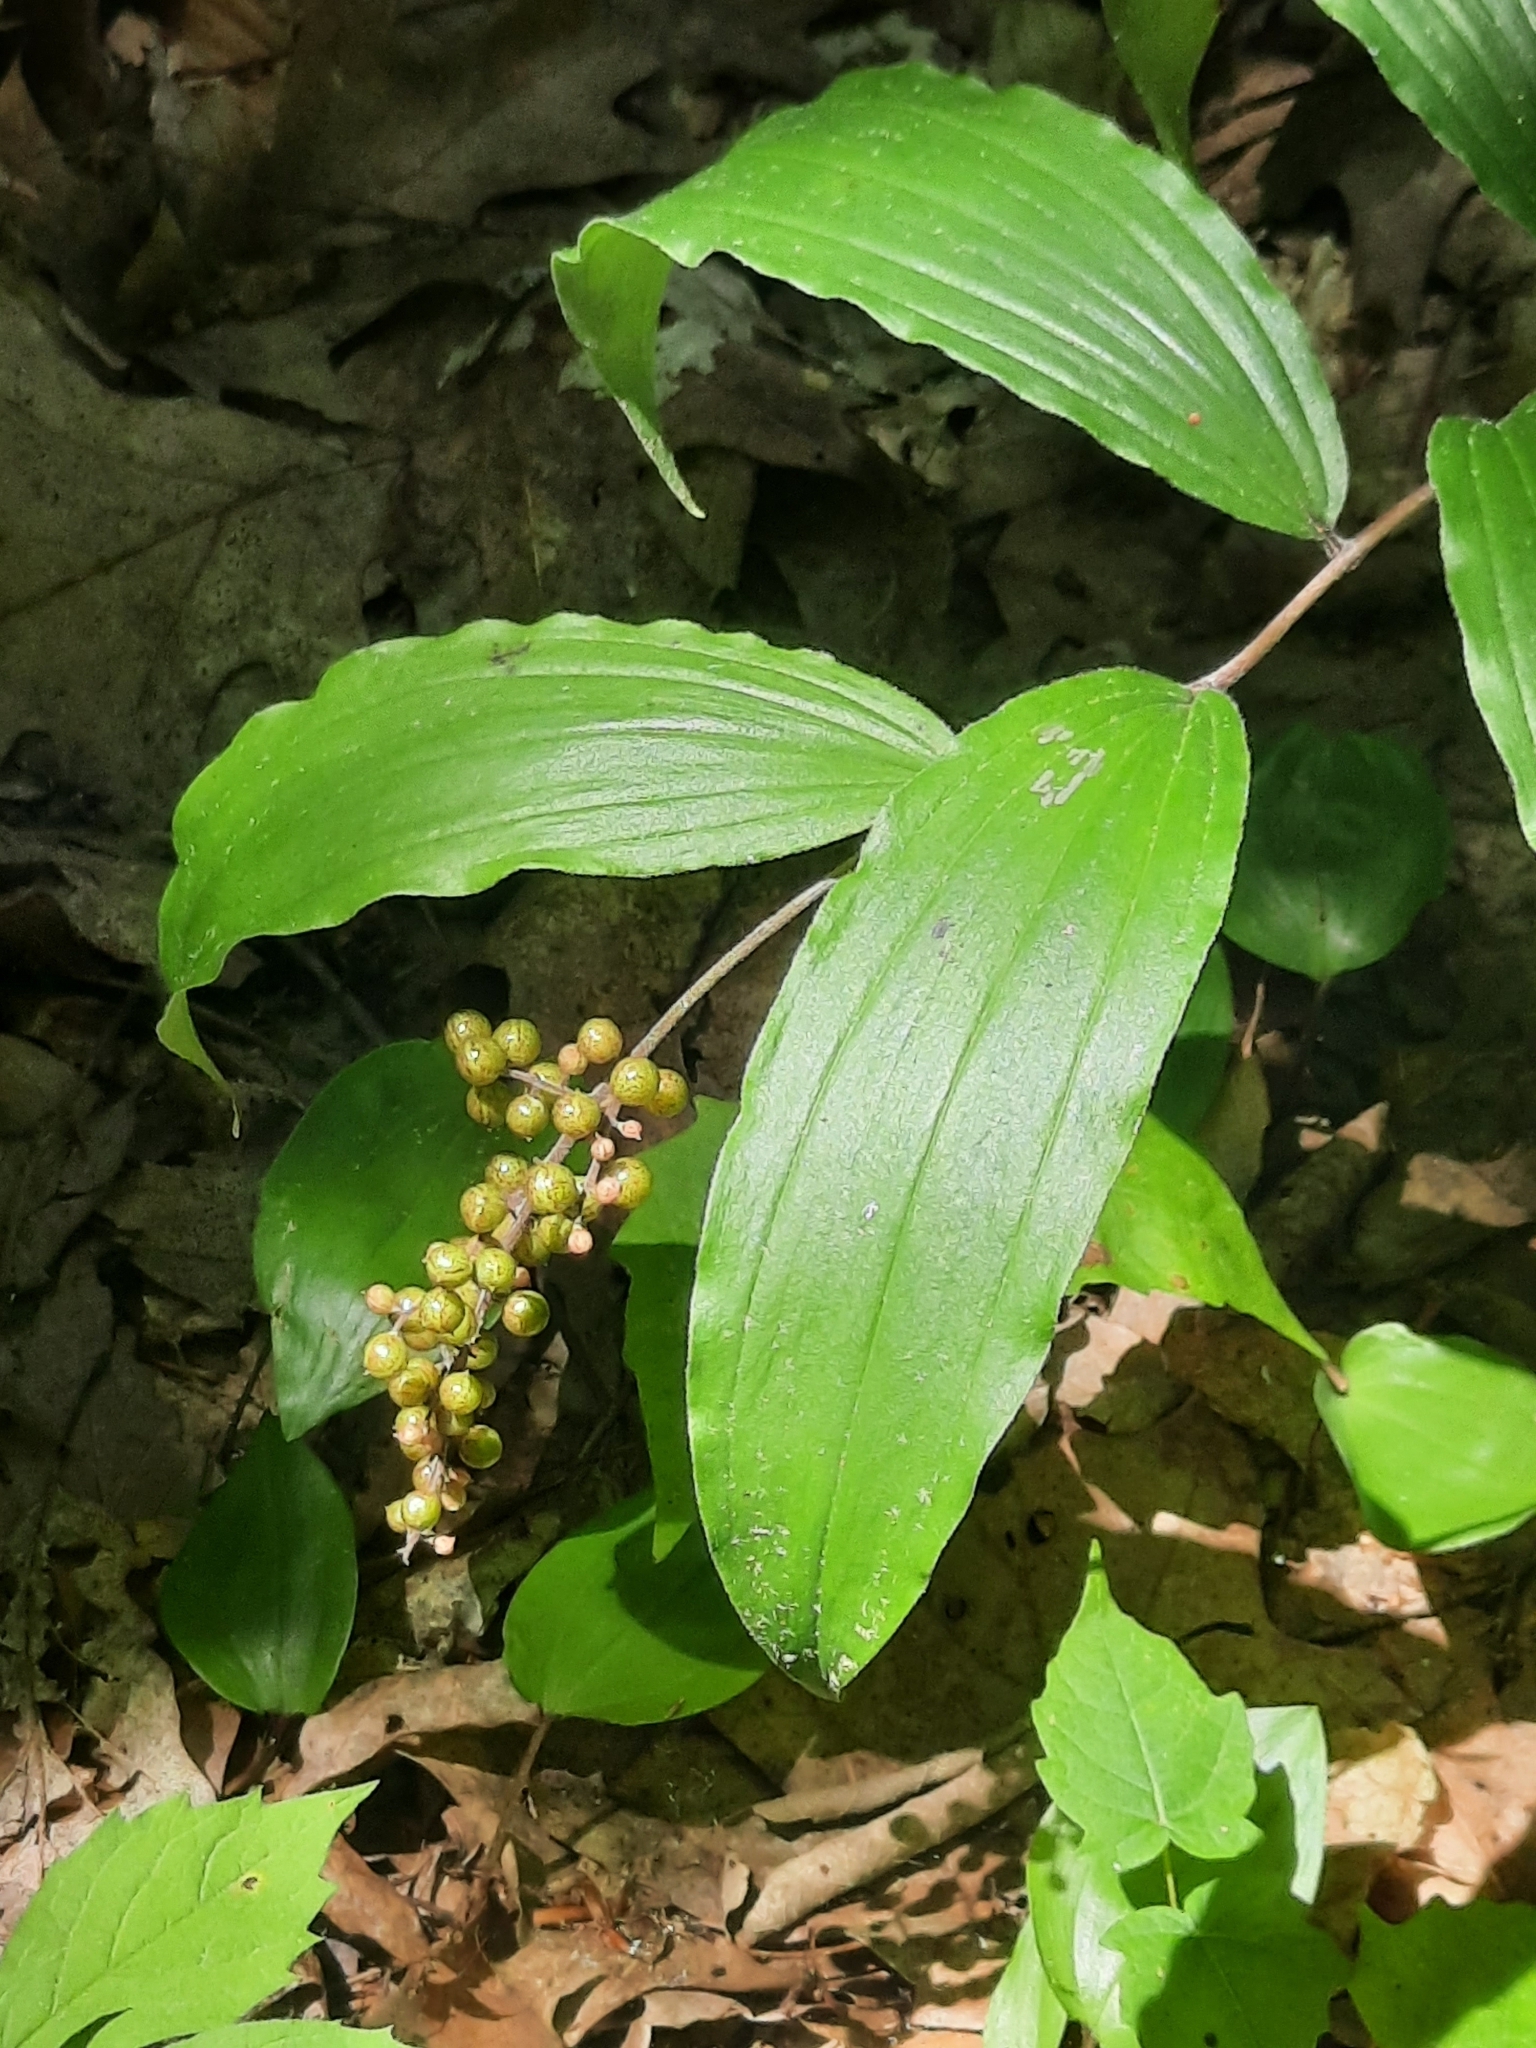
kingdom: Plantae
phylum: Tracheophyta
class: Liliopsida
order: Asparagales
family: Asparagaceae
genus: Maianthemum
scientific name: Maianthemum racemosum
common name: False spikenard
